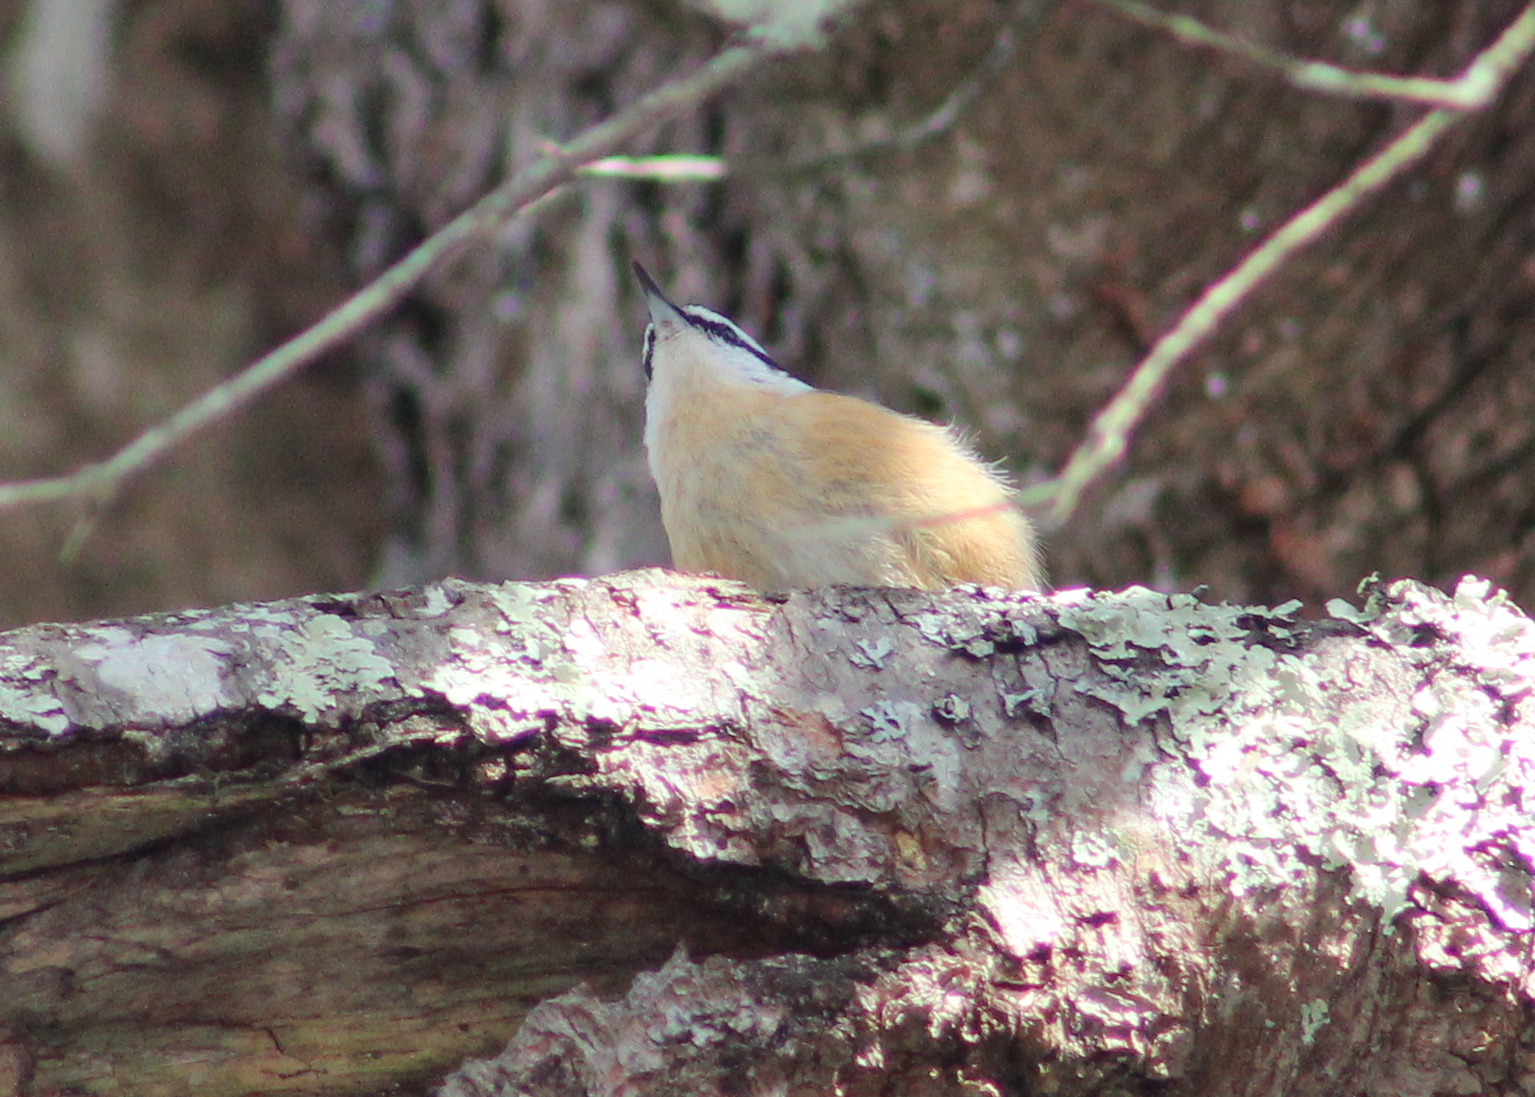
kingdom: Animalia
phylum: Chordata
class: Aves
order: Passeriformes
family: Sittidae
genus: Sitta
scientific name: Sitta canadensis
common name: Red-breasted nuthatch
